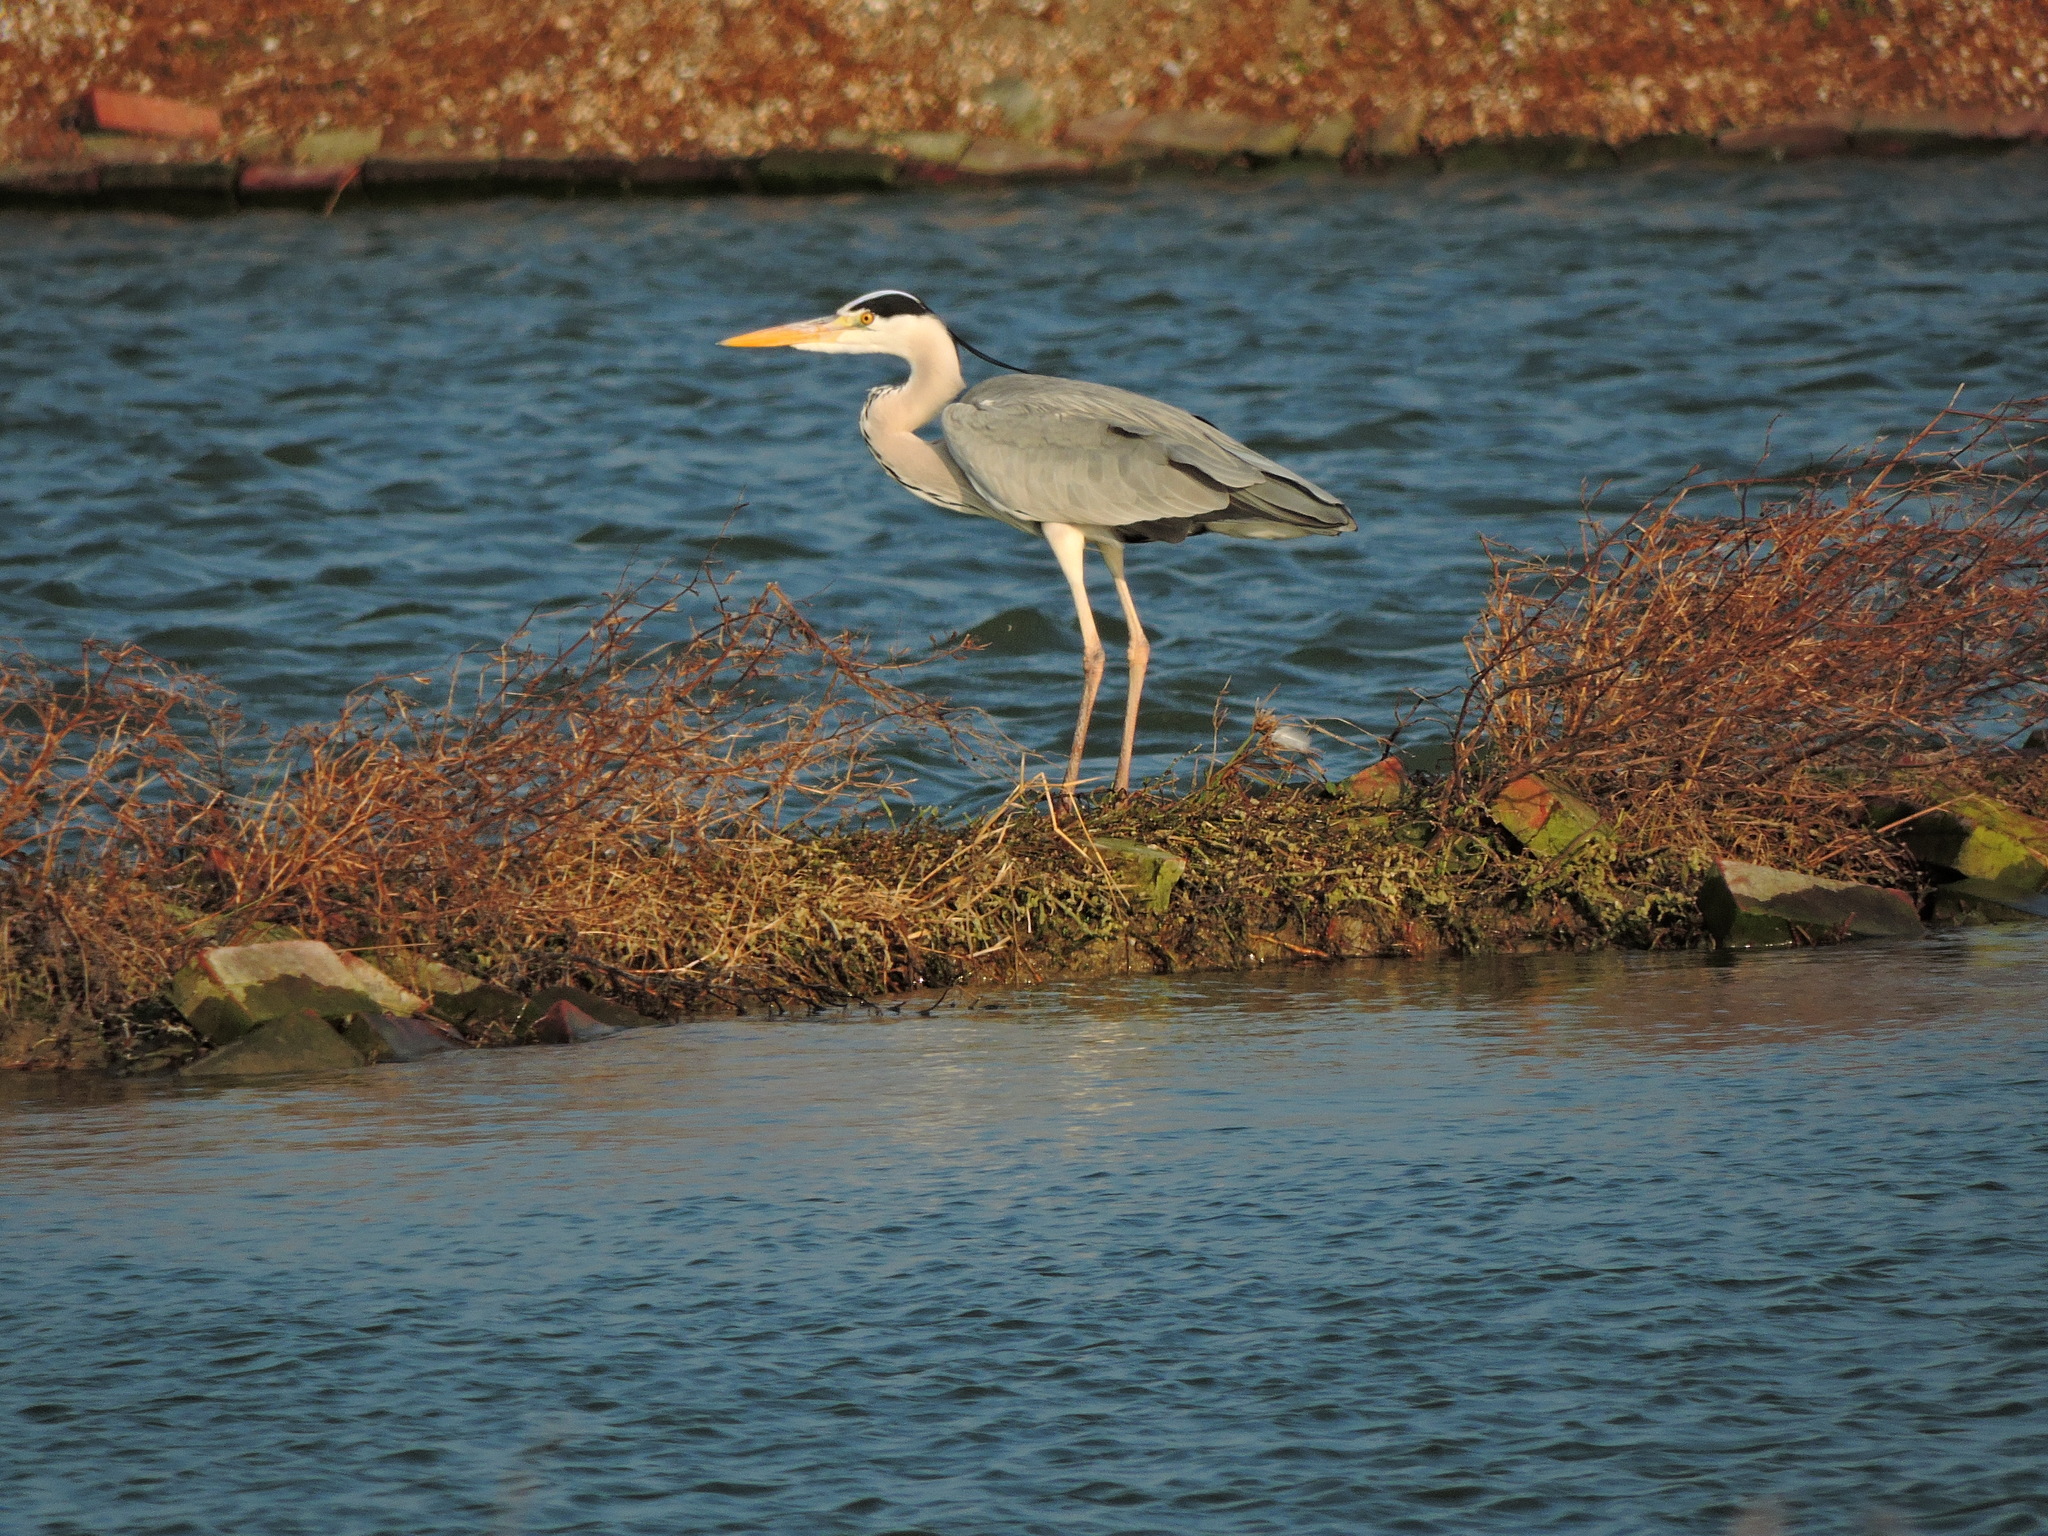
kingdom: Animalia
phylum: Chordata
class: Aves
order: Pelecaniformes
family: Ardeidae
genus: Ardea
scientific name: Ardea cinerea
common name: Grey heron
